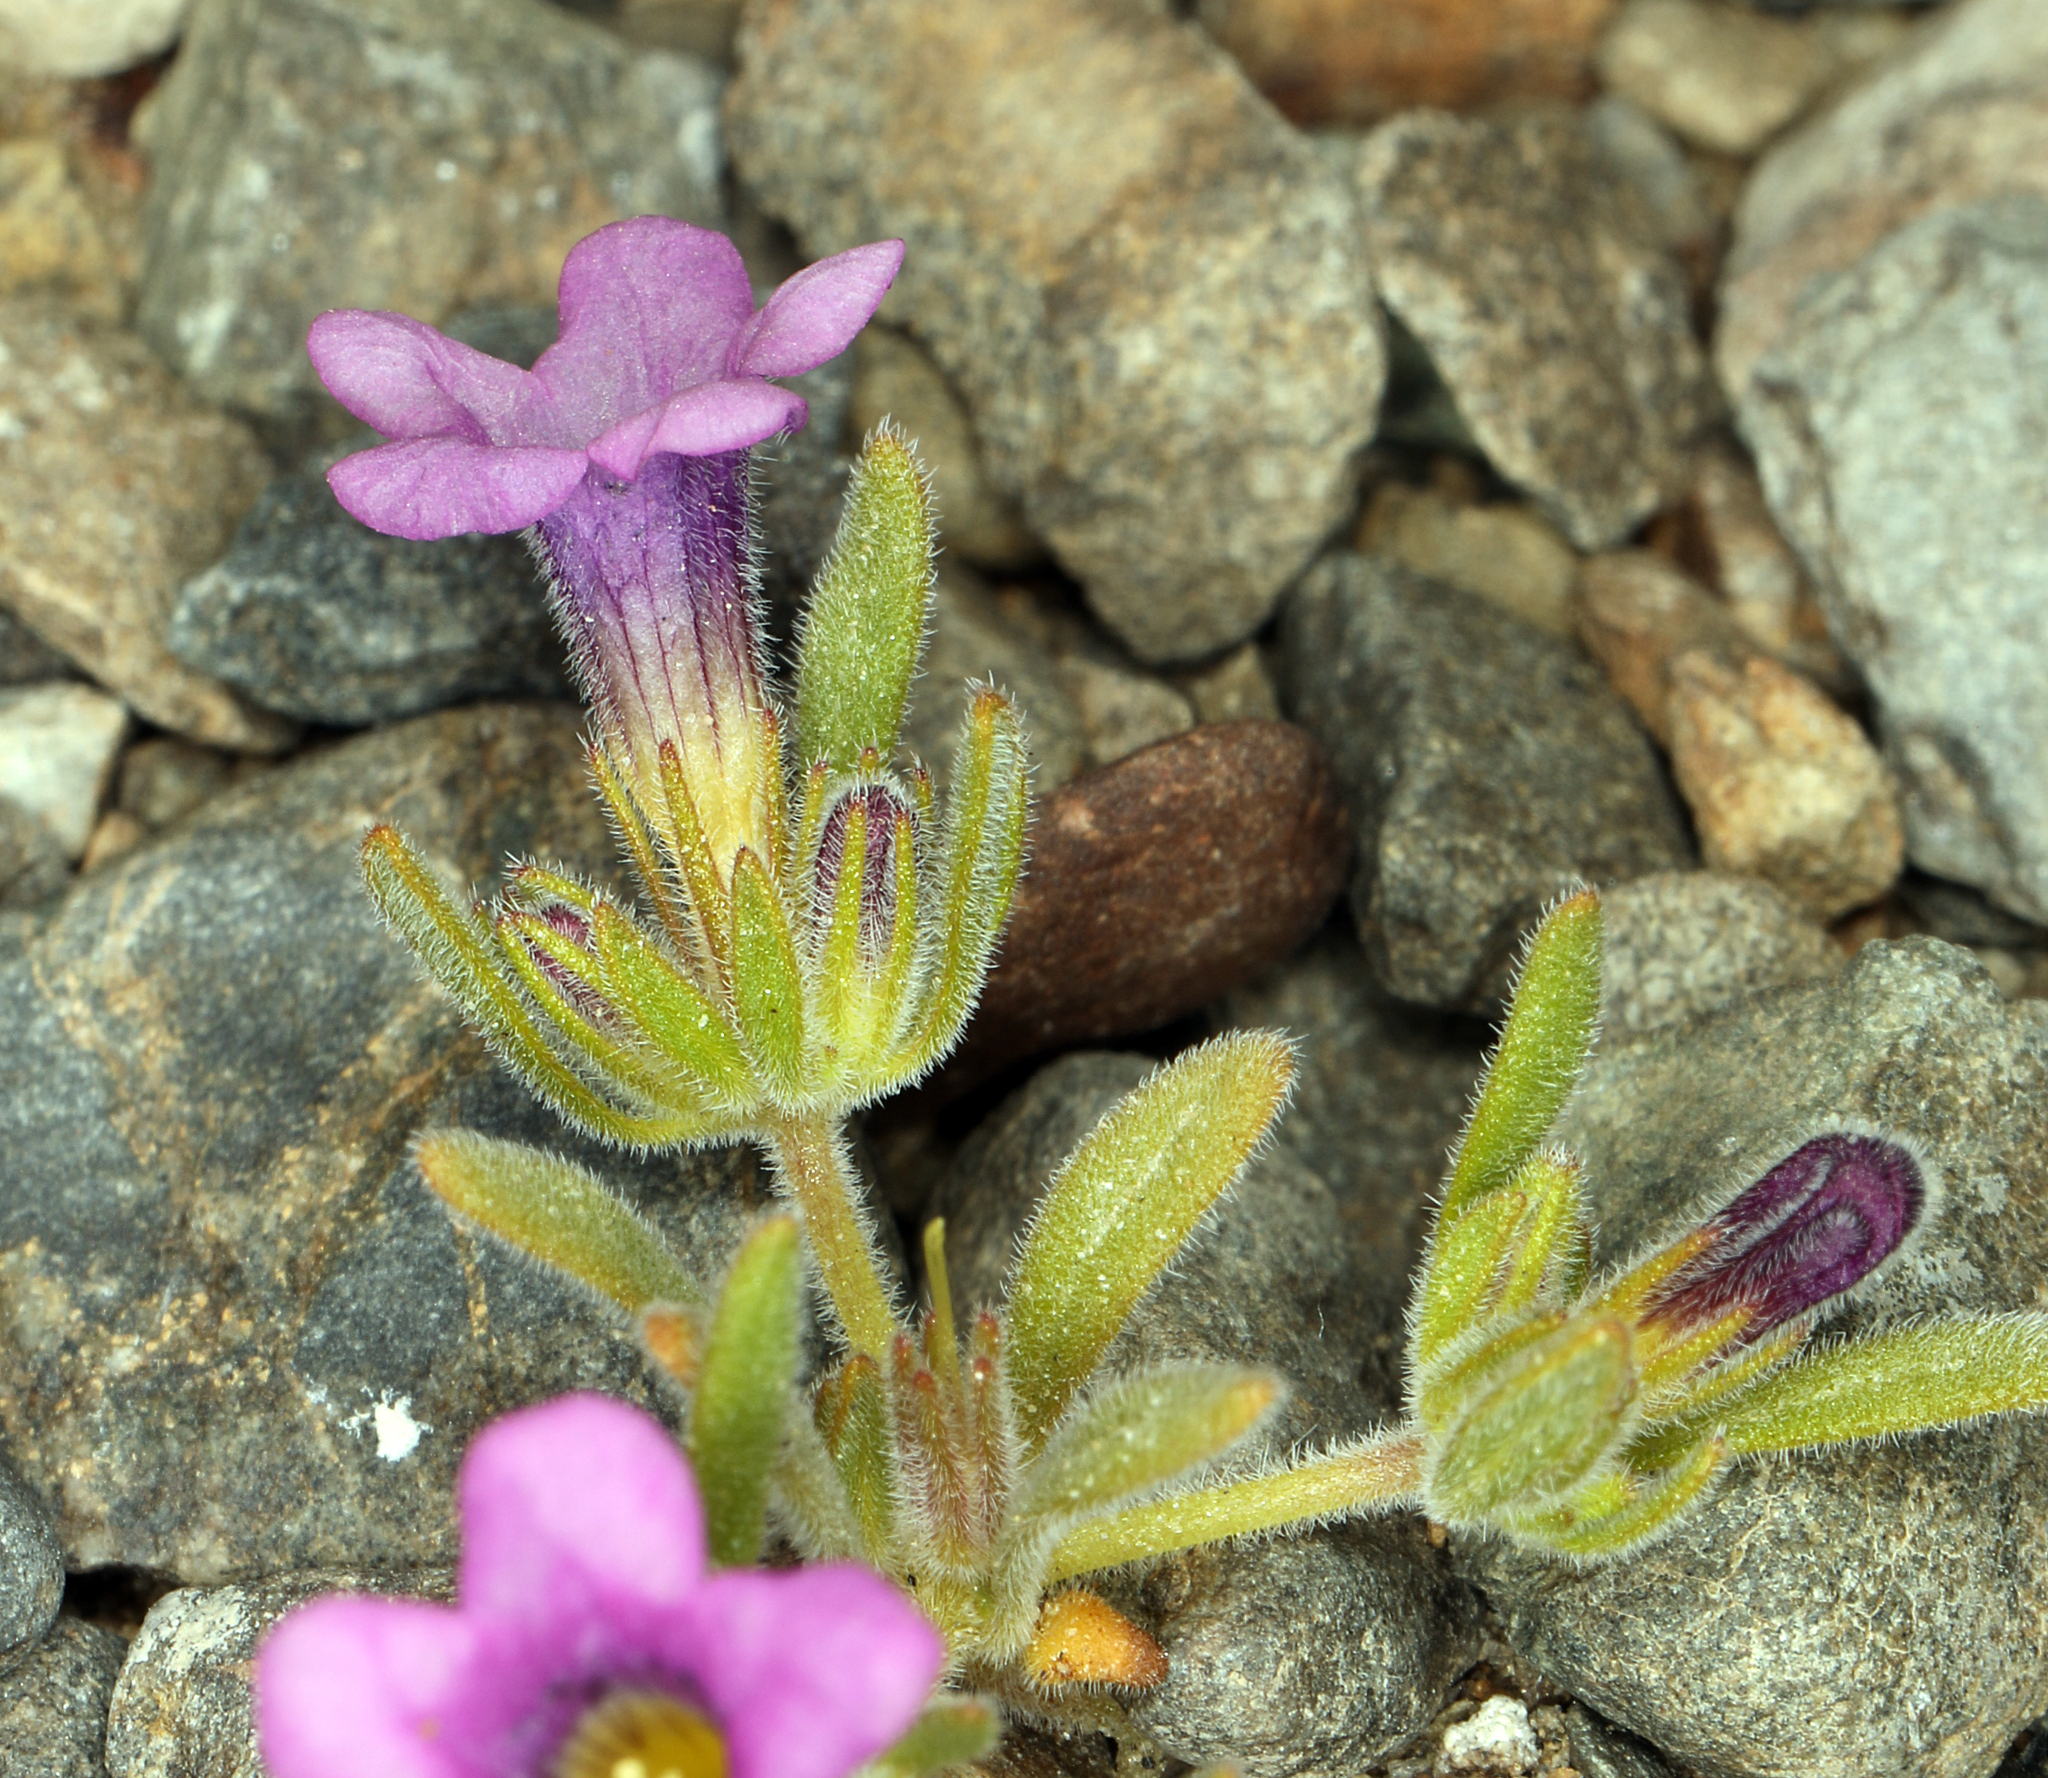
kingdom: Plantae
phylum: Tracheophyta
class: Magnoliopsida
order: Boraginales
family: Namaceae
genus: Nama
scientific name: Nama demissa
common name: Leafy nama
